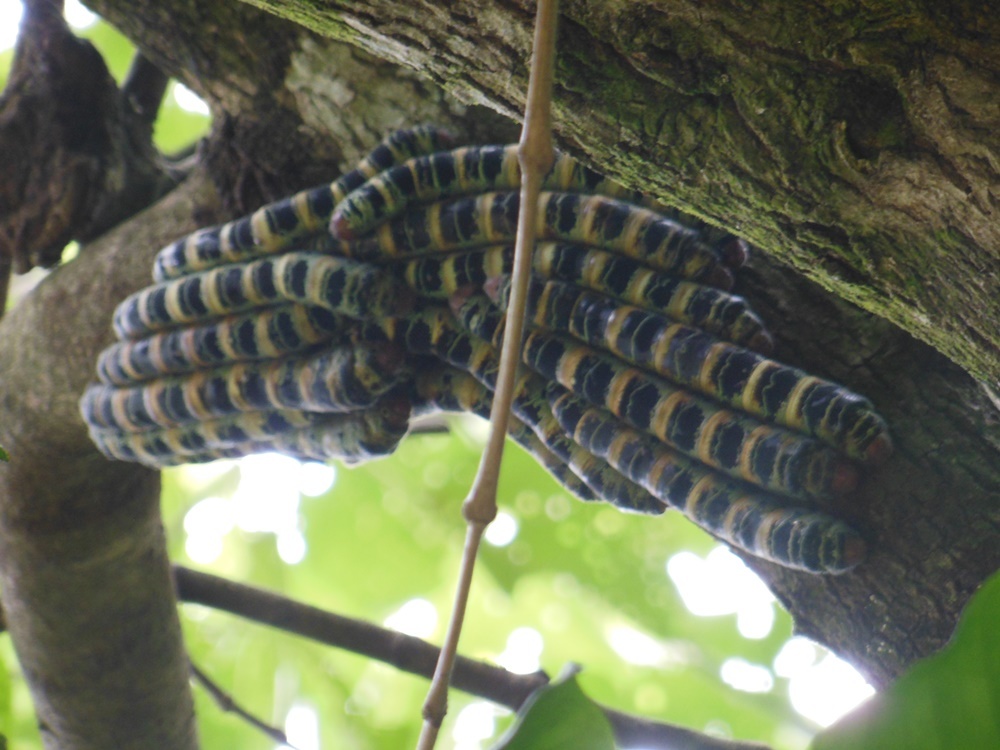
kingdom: Animalia
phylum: Arthropoda
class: Insecta
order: Lepidoptera
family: Saturniidae
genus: Arsenura
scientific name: Arsenura armida
